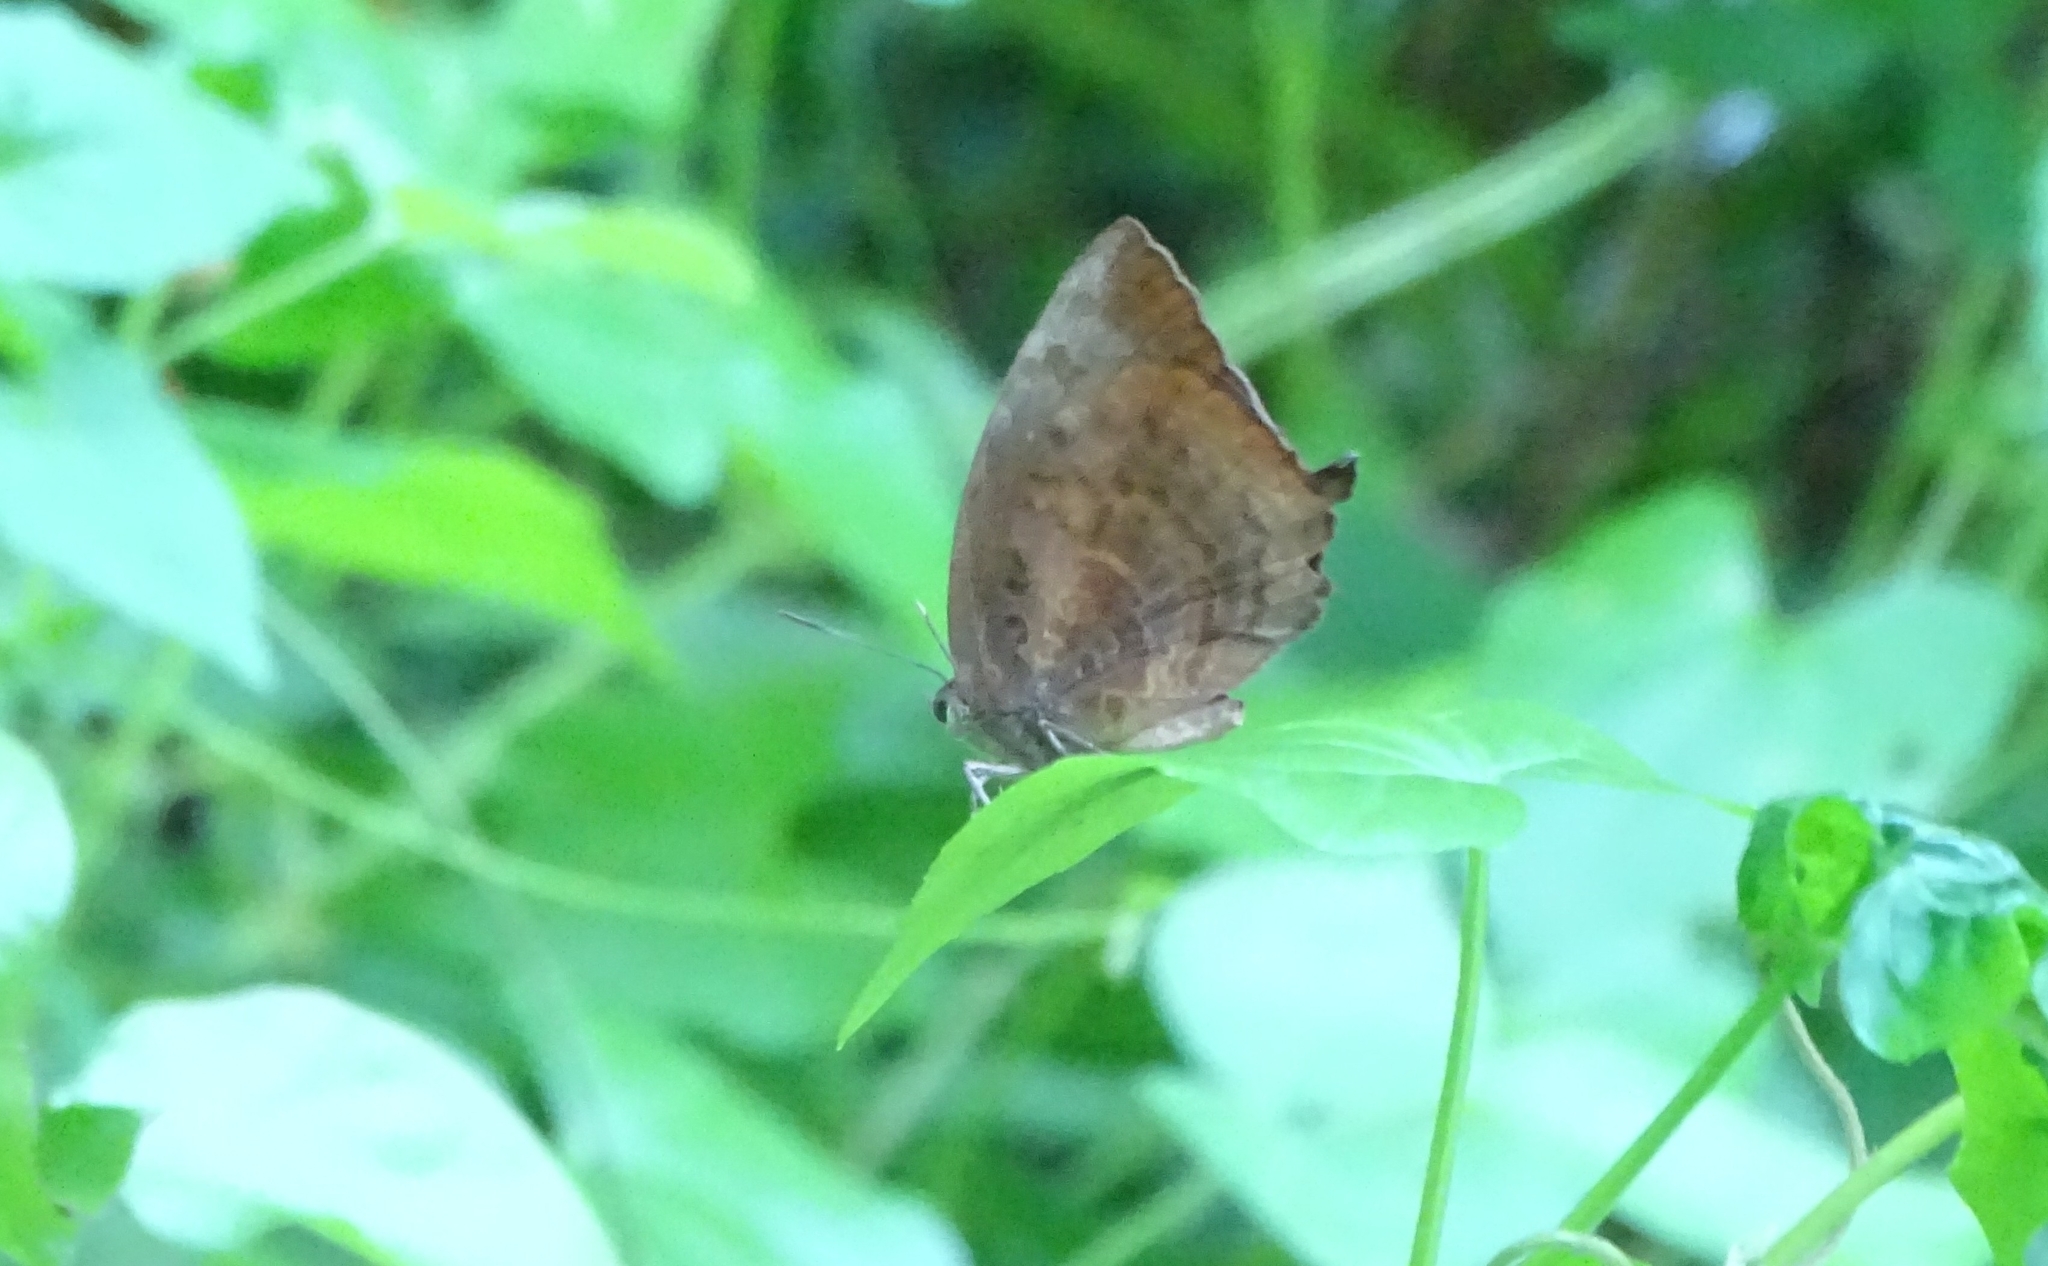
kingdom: Animalia
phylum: Arthropoda
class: Insecta
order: Lepidoptera
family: Lycaenidae
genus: Arhopala
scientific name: Arhopala centaurus
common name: Dull oak-blue
